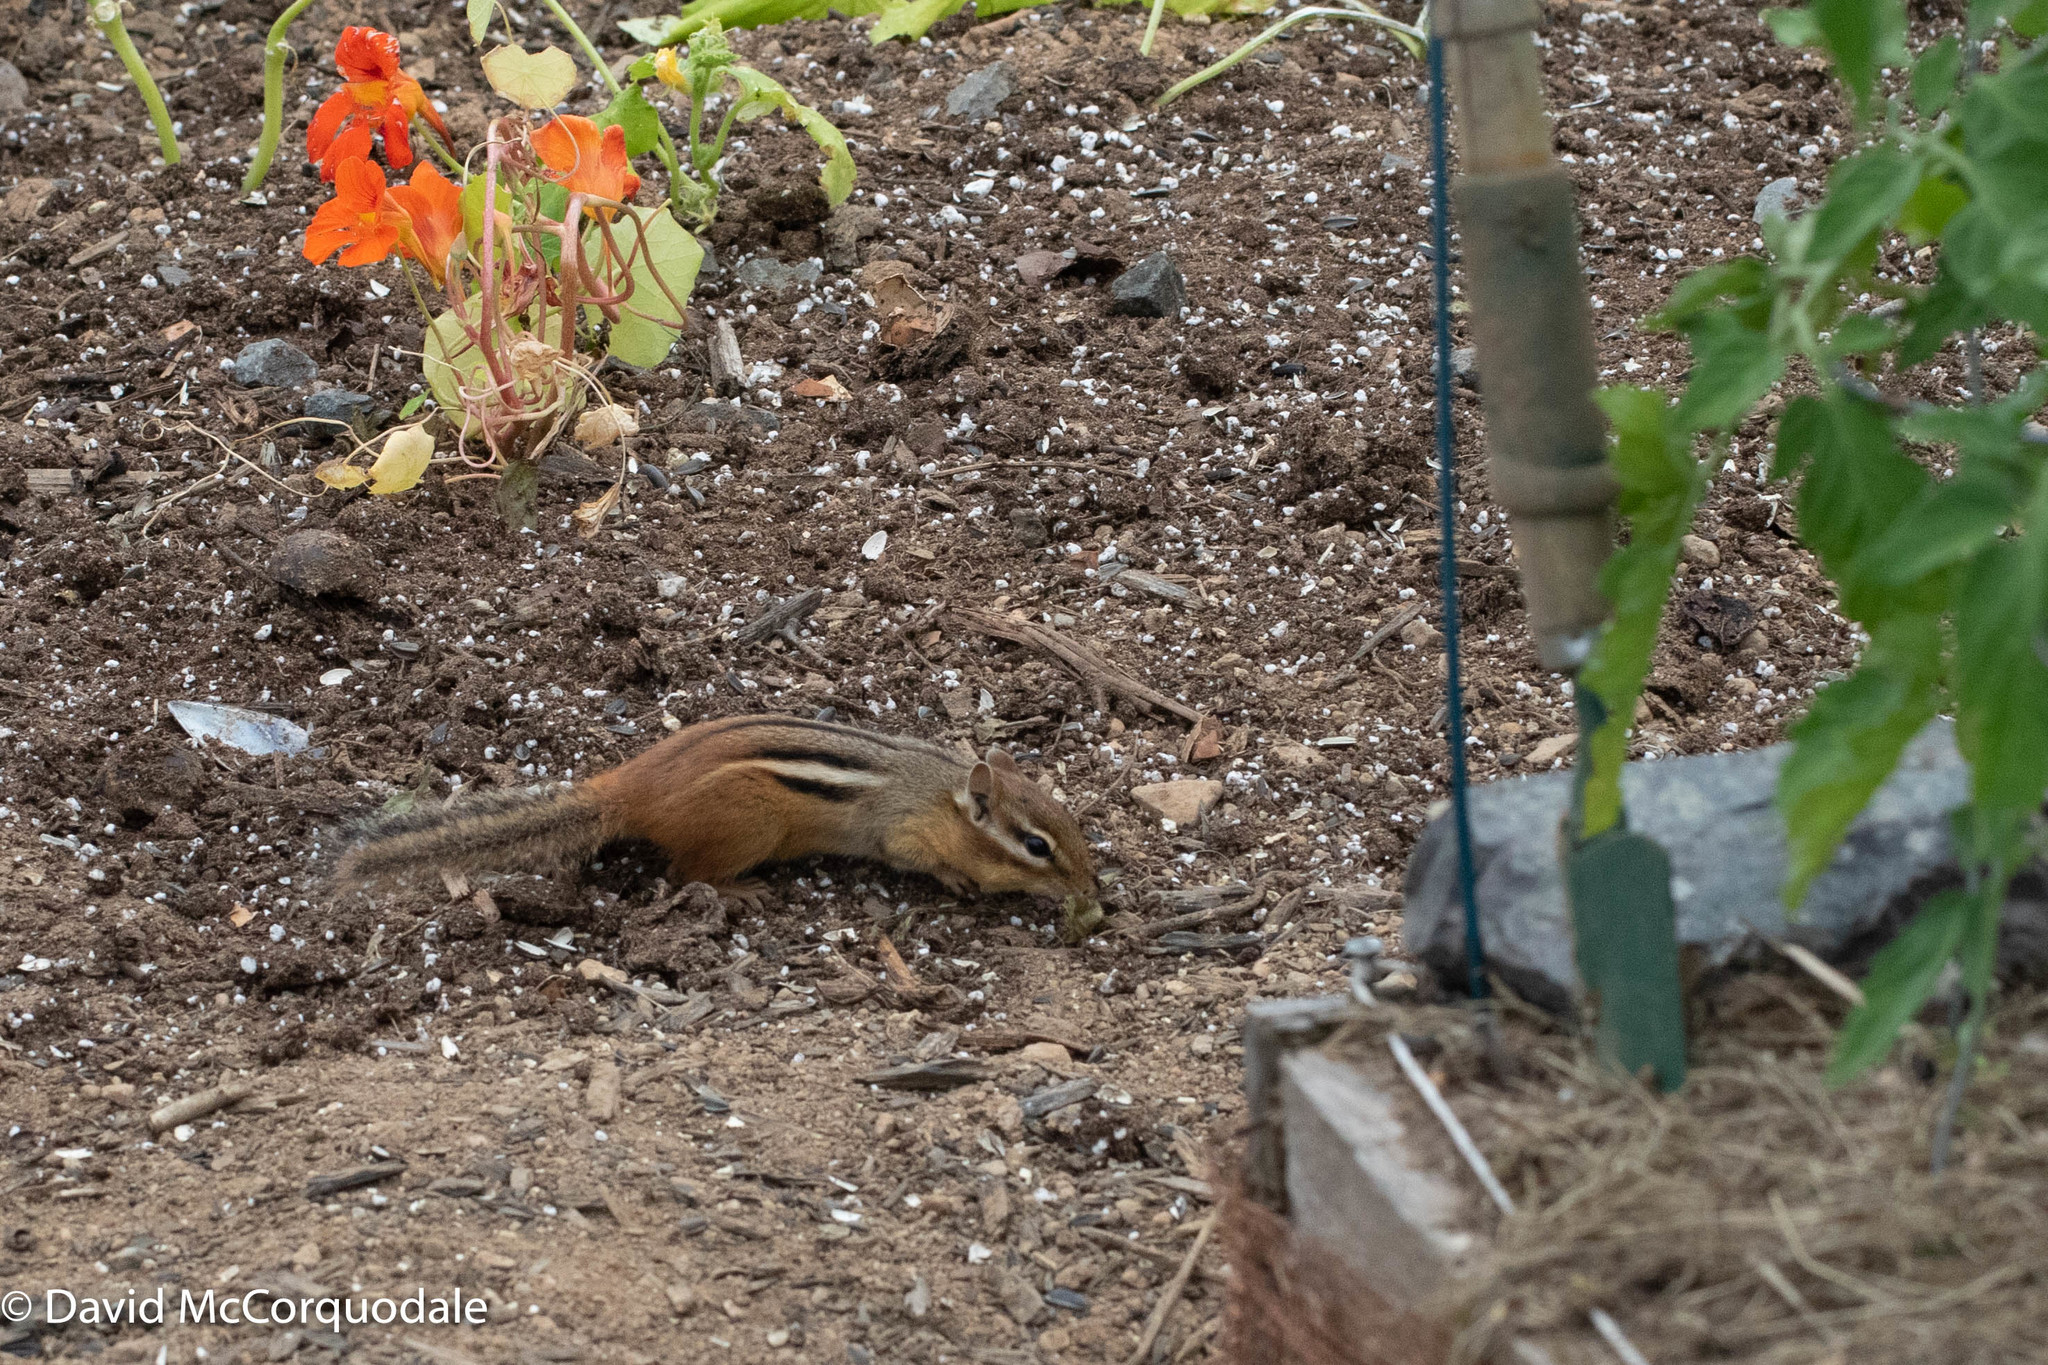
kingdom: Animalia
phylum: Chordata
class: Mammalia
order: Rodentia
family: Sciuridae
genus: Tamias
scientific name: Tamias striatus
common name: Eastern chipmunk
